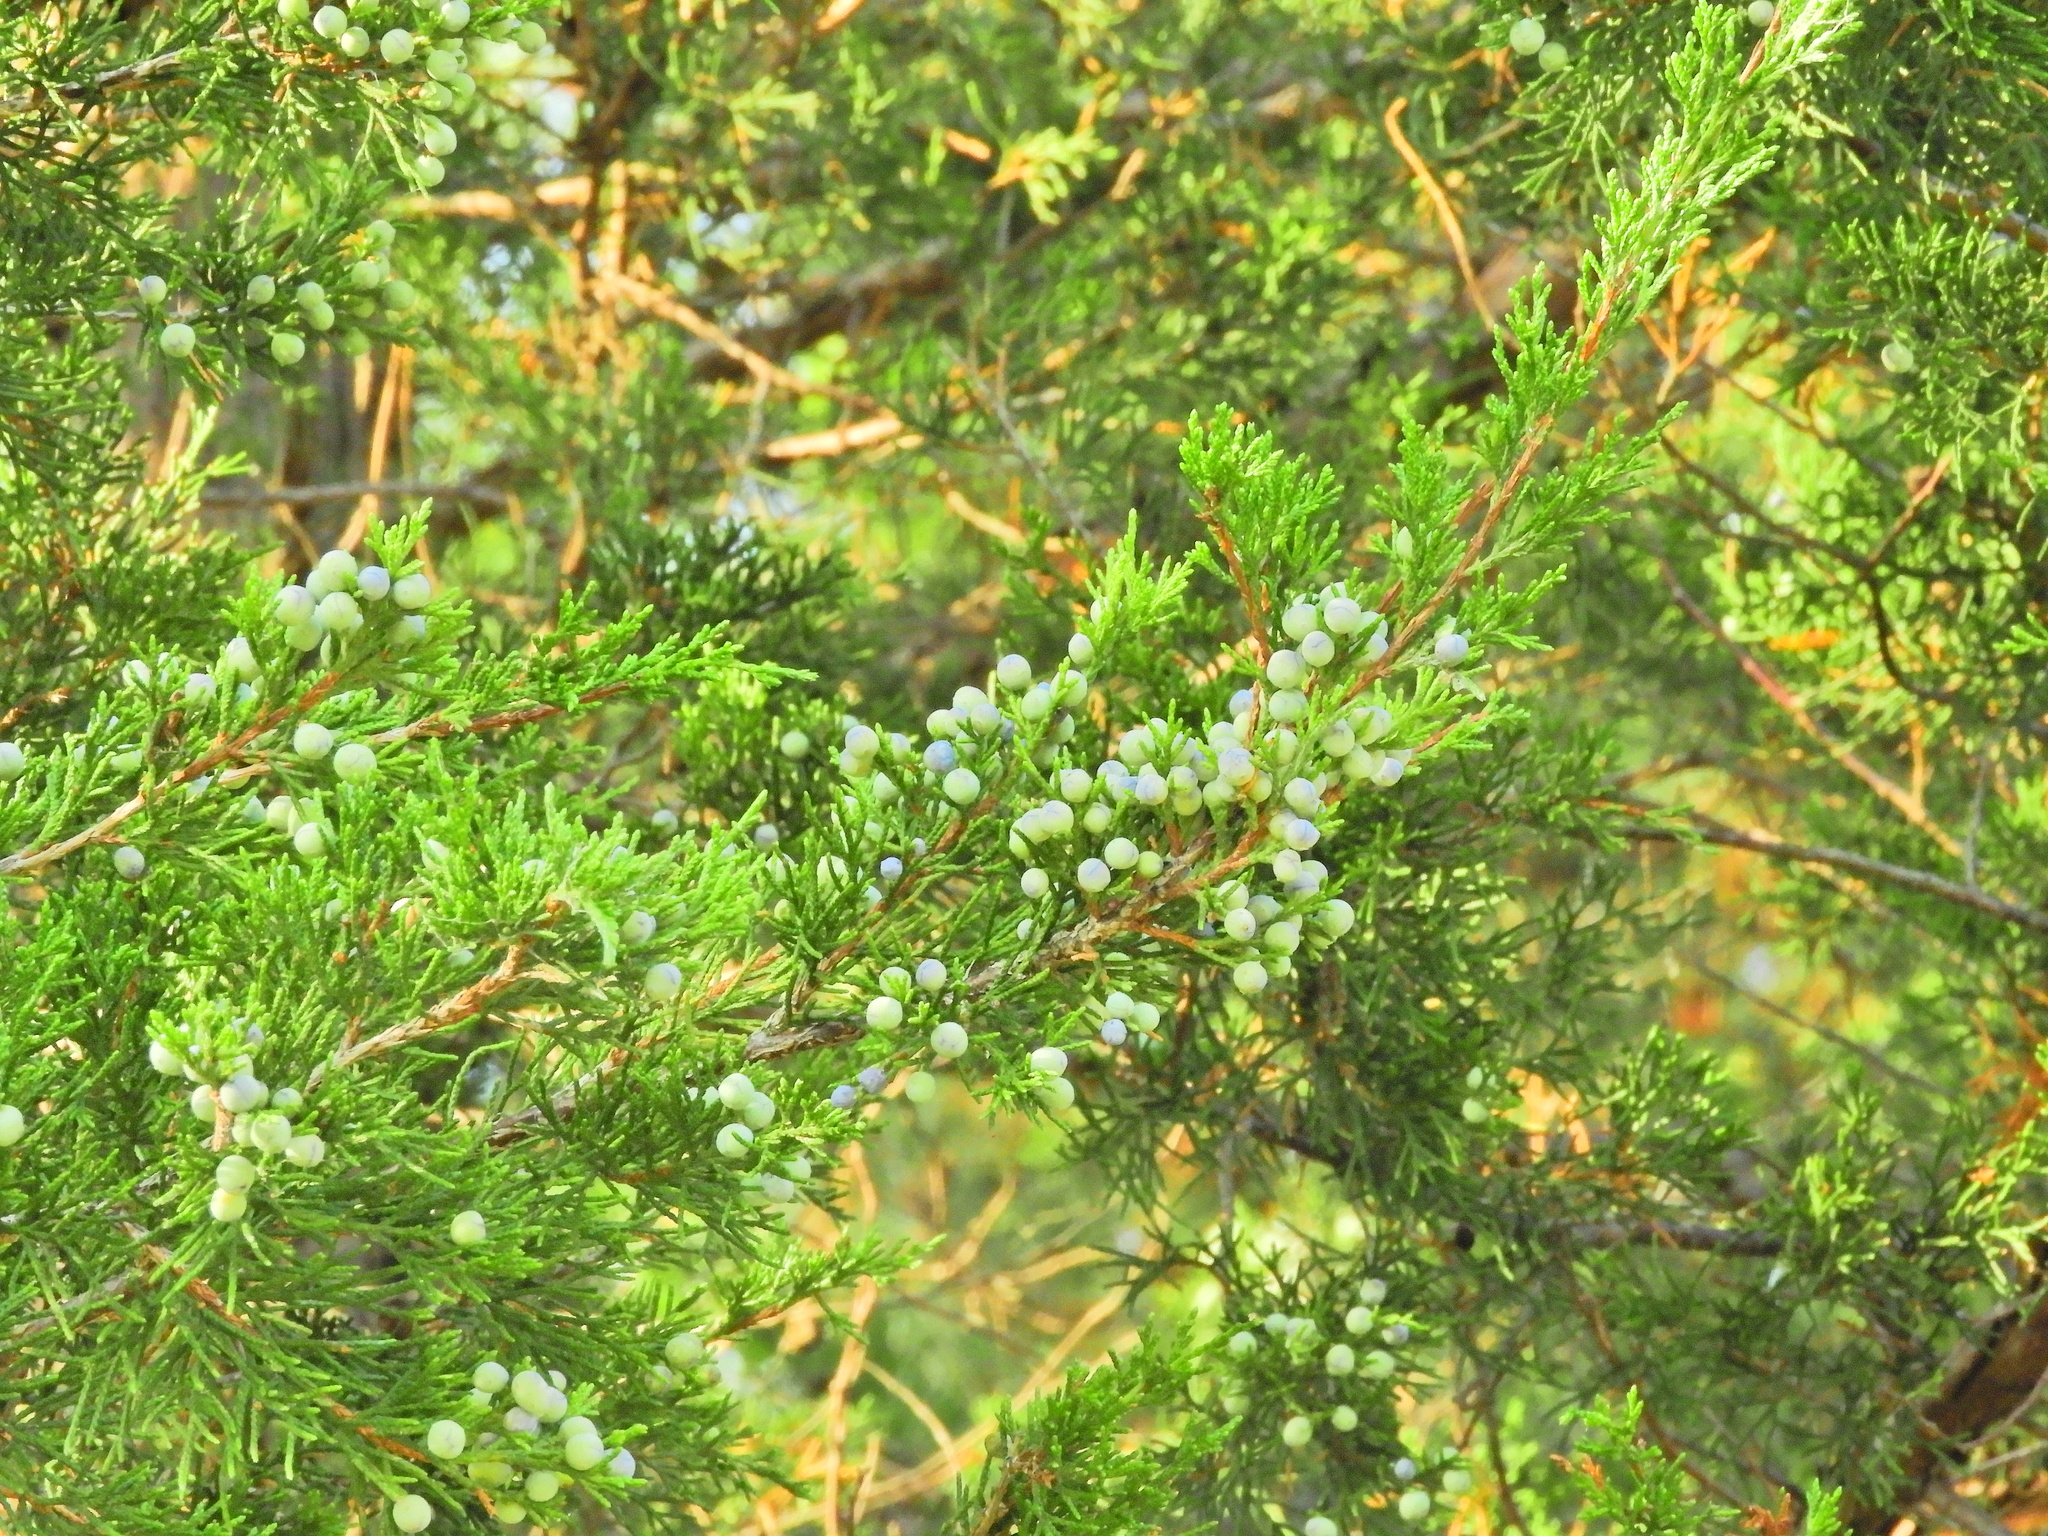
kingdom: Plantae
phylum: Tracheophyta
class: Pinopsida
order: Pinales
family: Cupressaceae
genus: Juniperus
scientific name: Juniperus virginiana
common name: Red juniper
